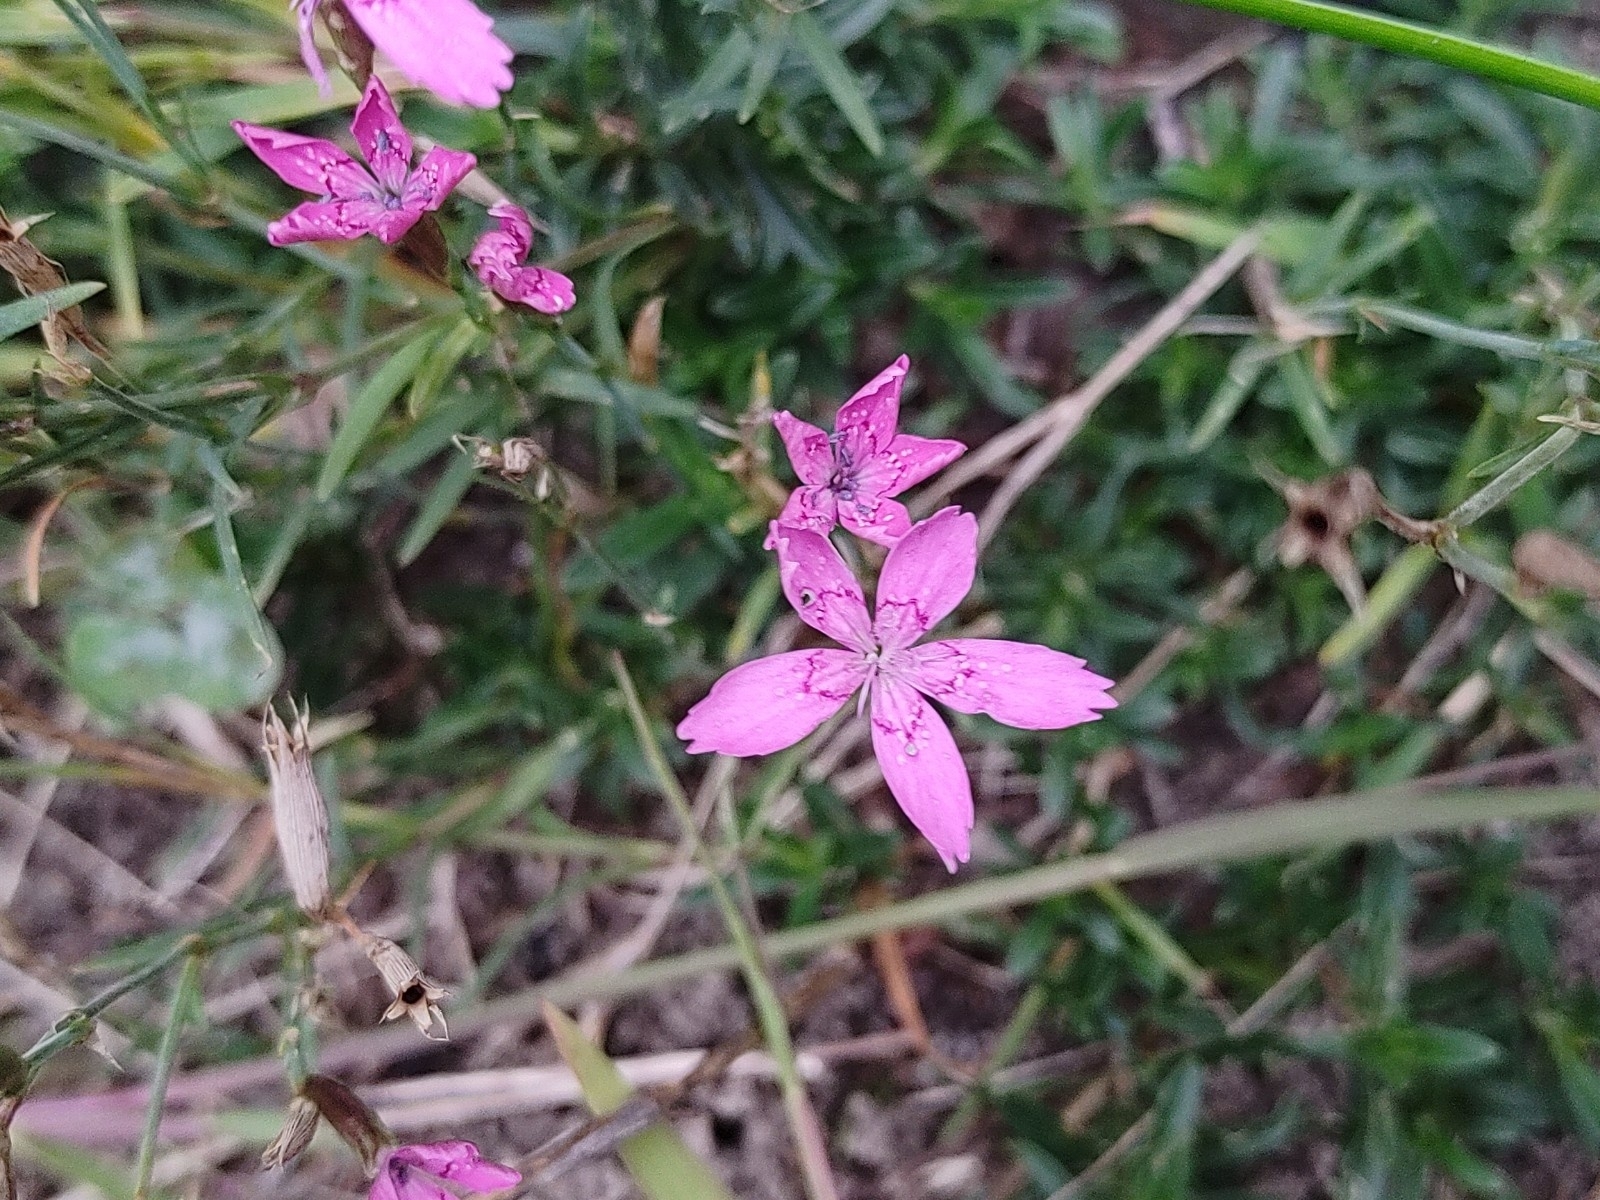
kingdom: Plantae
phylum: Tracheophyta
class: Magnoliopsida
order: Caryophyllales
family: Caryophyllaceae
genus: Dianthus
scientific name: Dianthus deltoides
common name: Maiden pink
